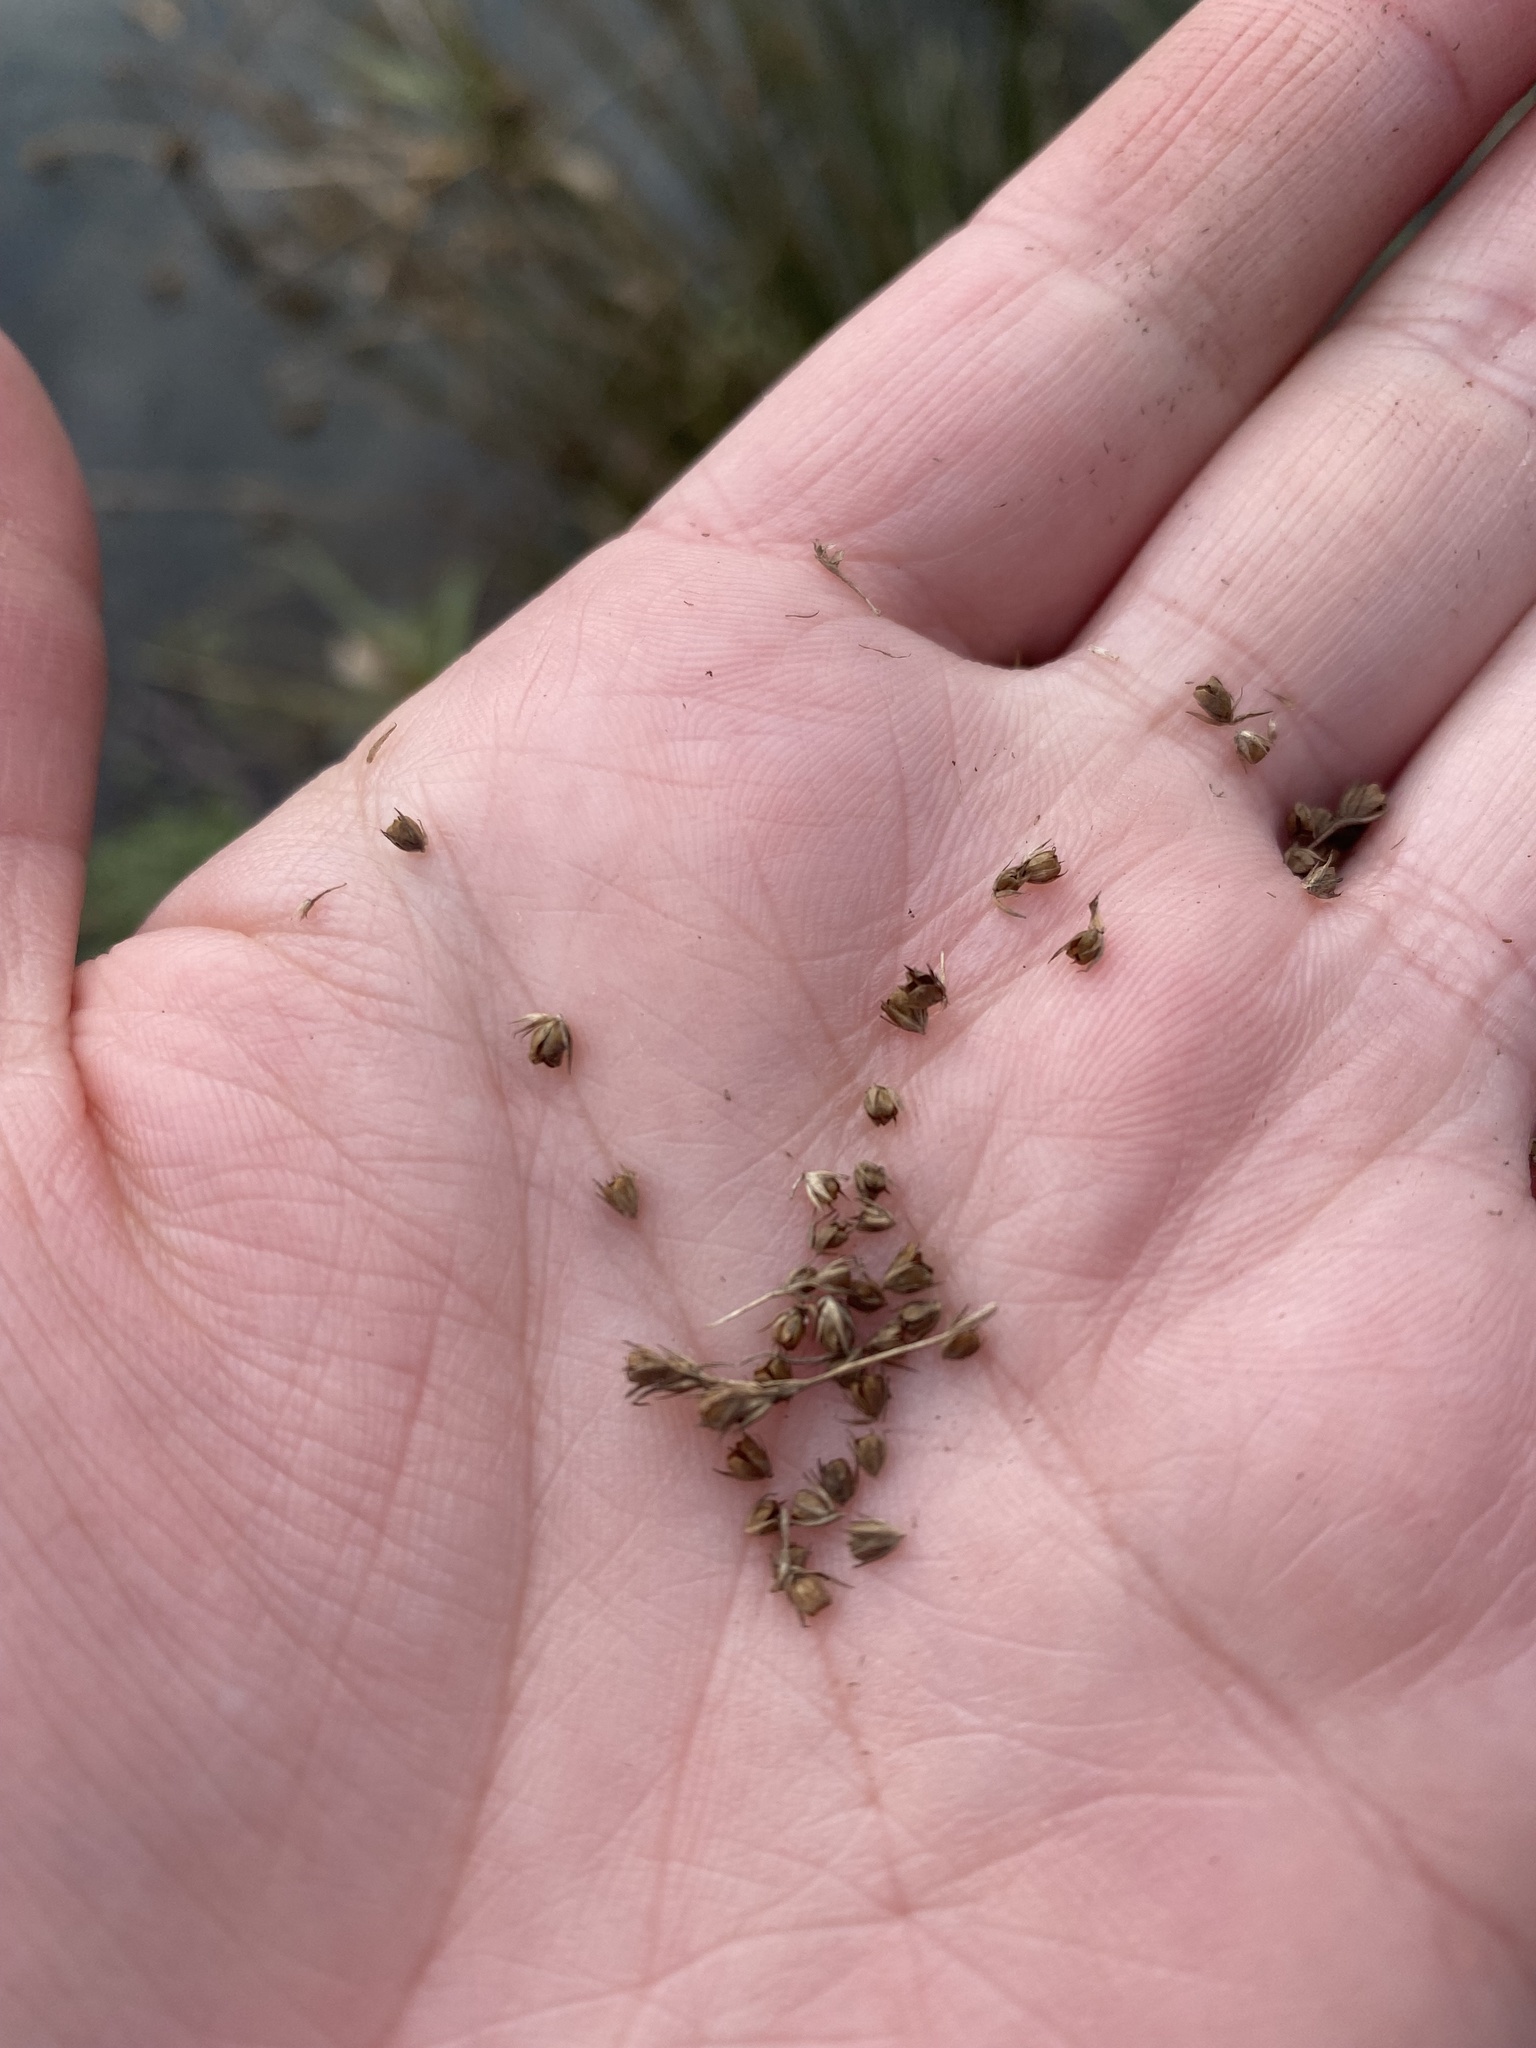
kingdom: Plantae
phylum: Tracheophyta
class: Liliopsida
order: Poales
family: Juncaceae
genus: Juncus
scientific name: Juncus effusus
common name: Soft rush
